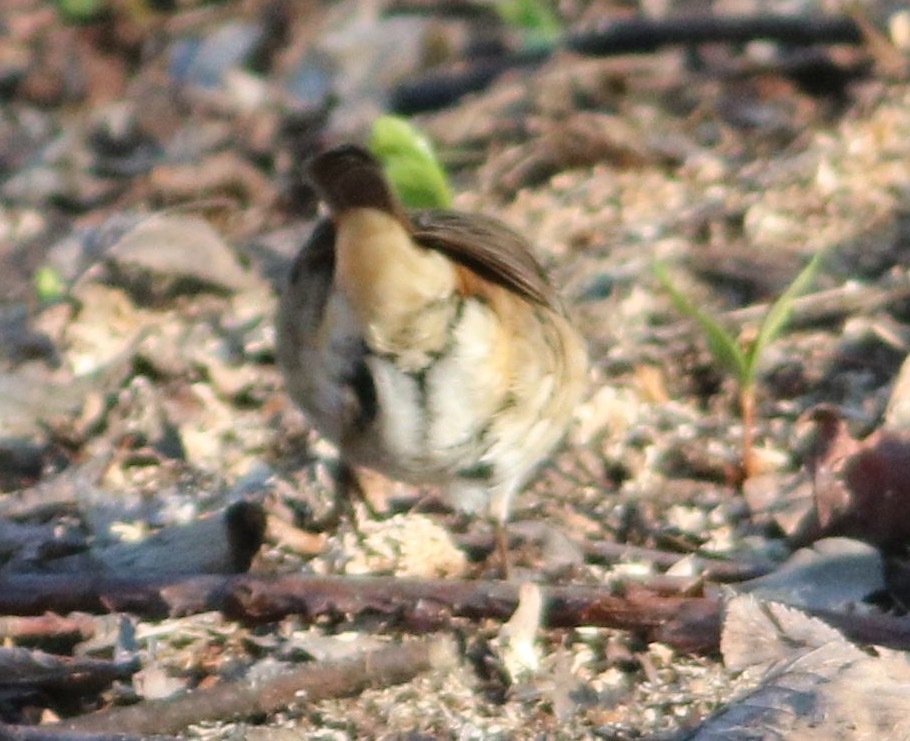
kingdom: Animalia
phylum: Chordata
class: Aves
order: Passeriformes
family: Muscicapidae
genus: Luscinia
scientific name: Luscinia luscinia
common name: Thrush nightingale
